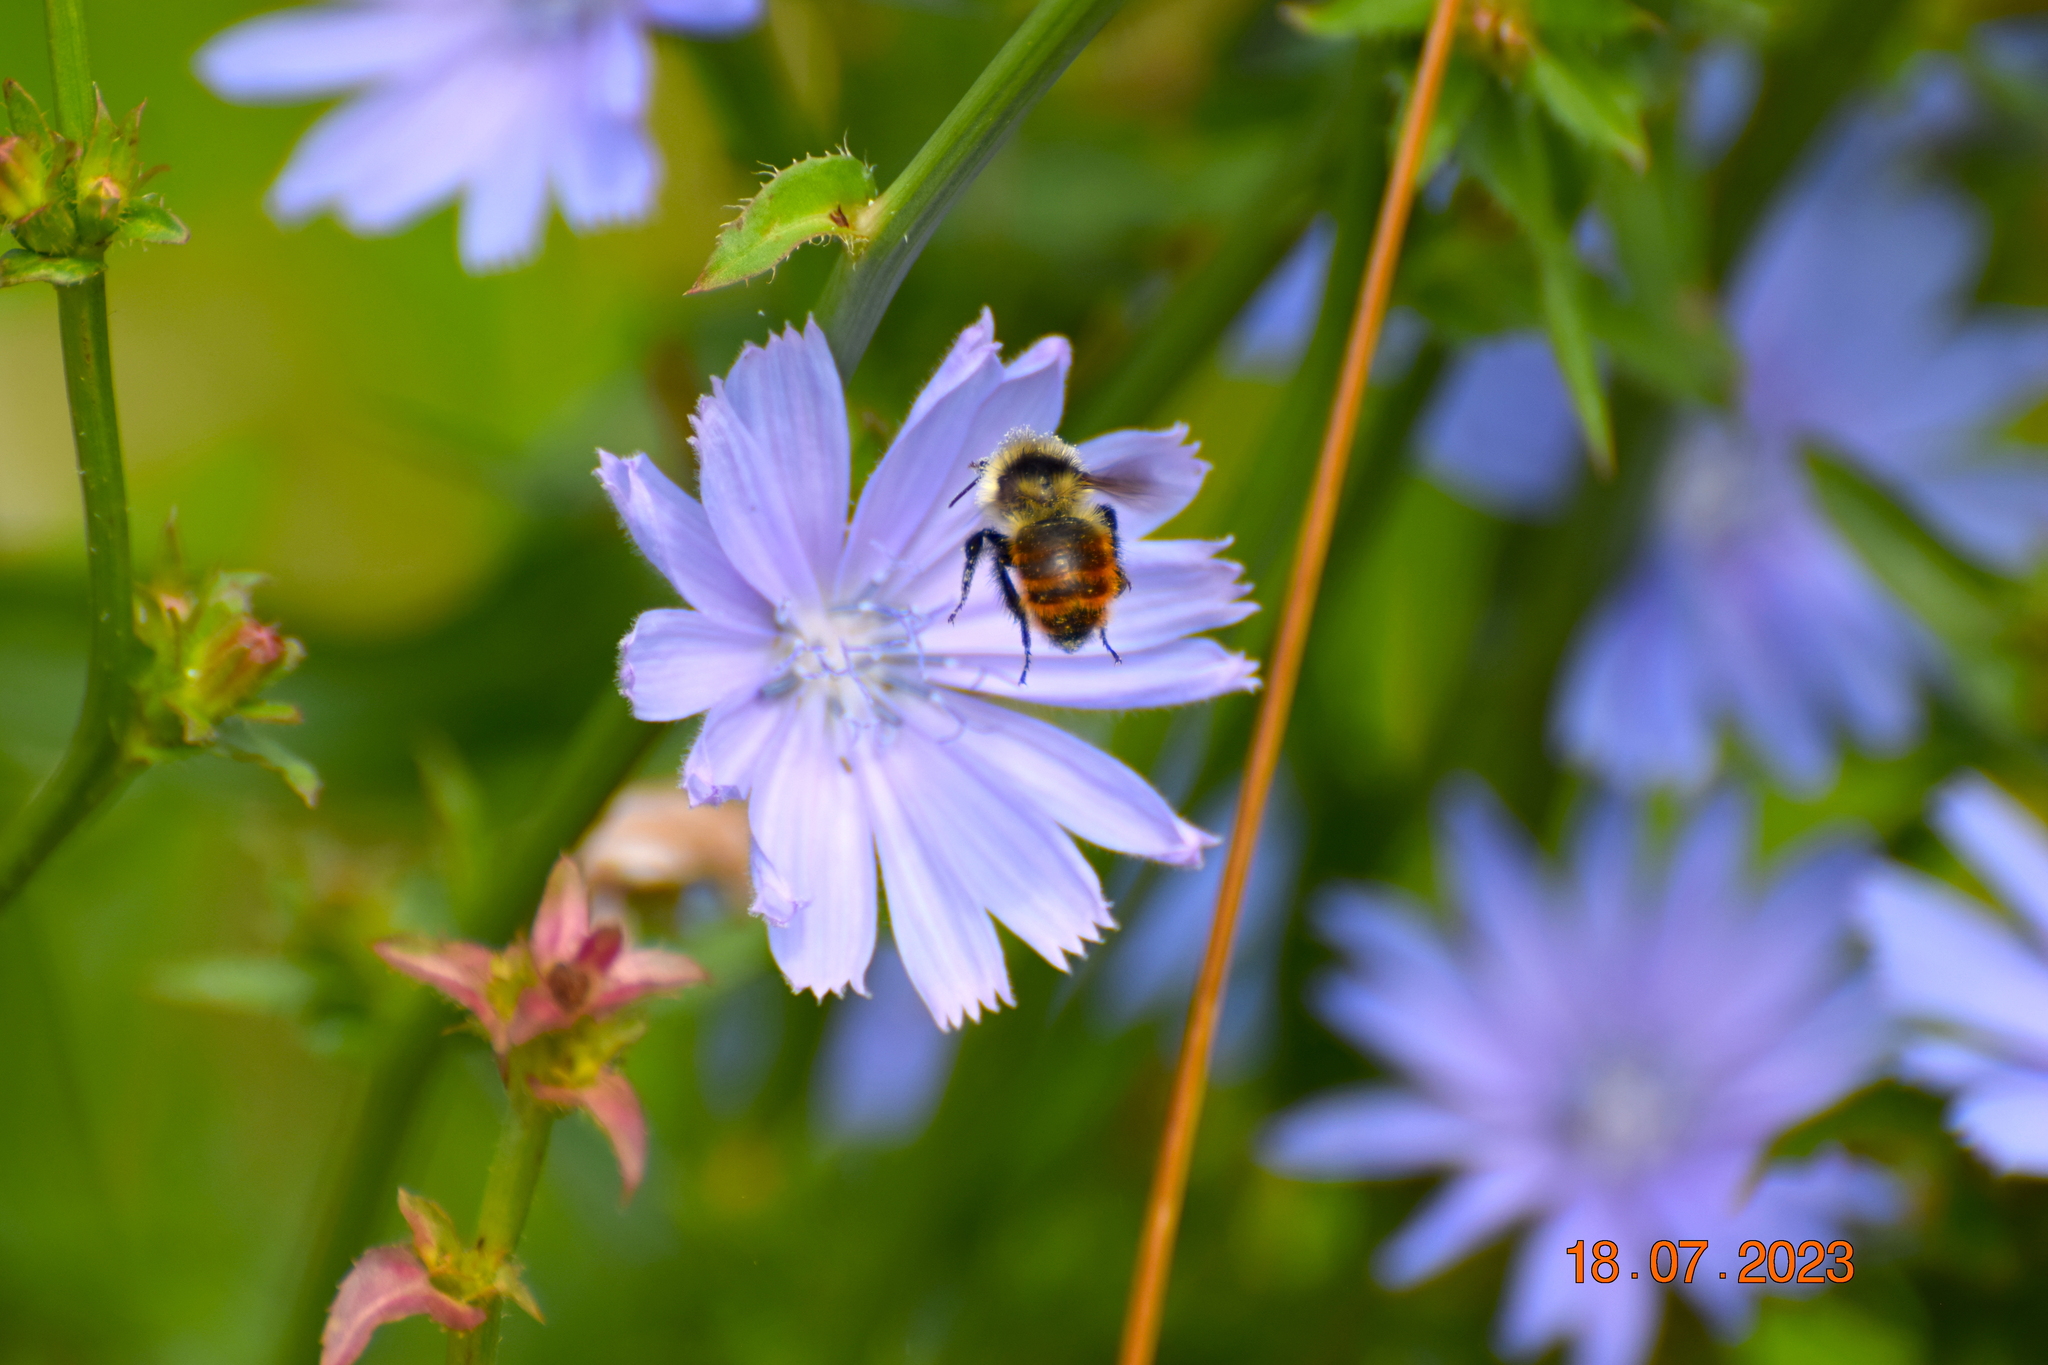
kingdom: Animalia
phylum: Arthropoda
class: Insecta
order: Hymenoptera
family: Apidae
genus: Bombus
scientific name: Bombus rufocinctus
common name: Red-belted bumble bee
